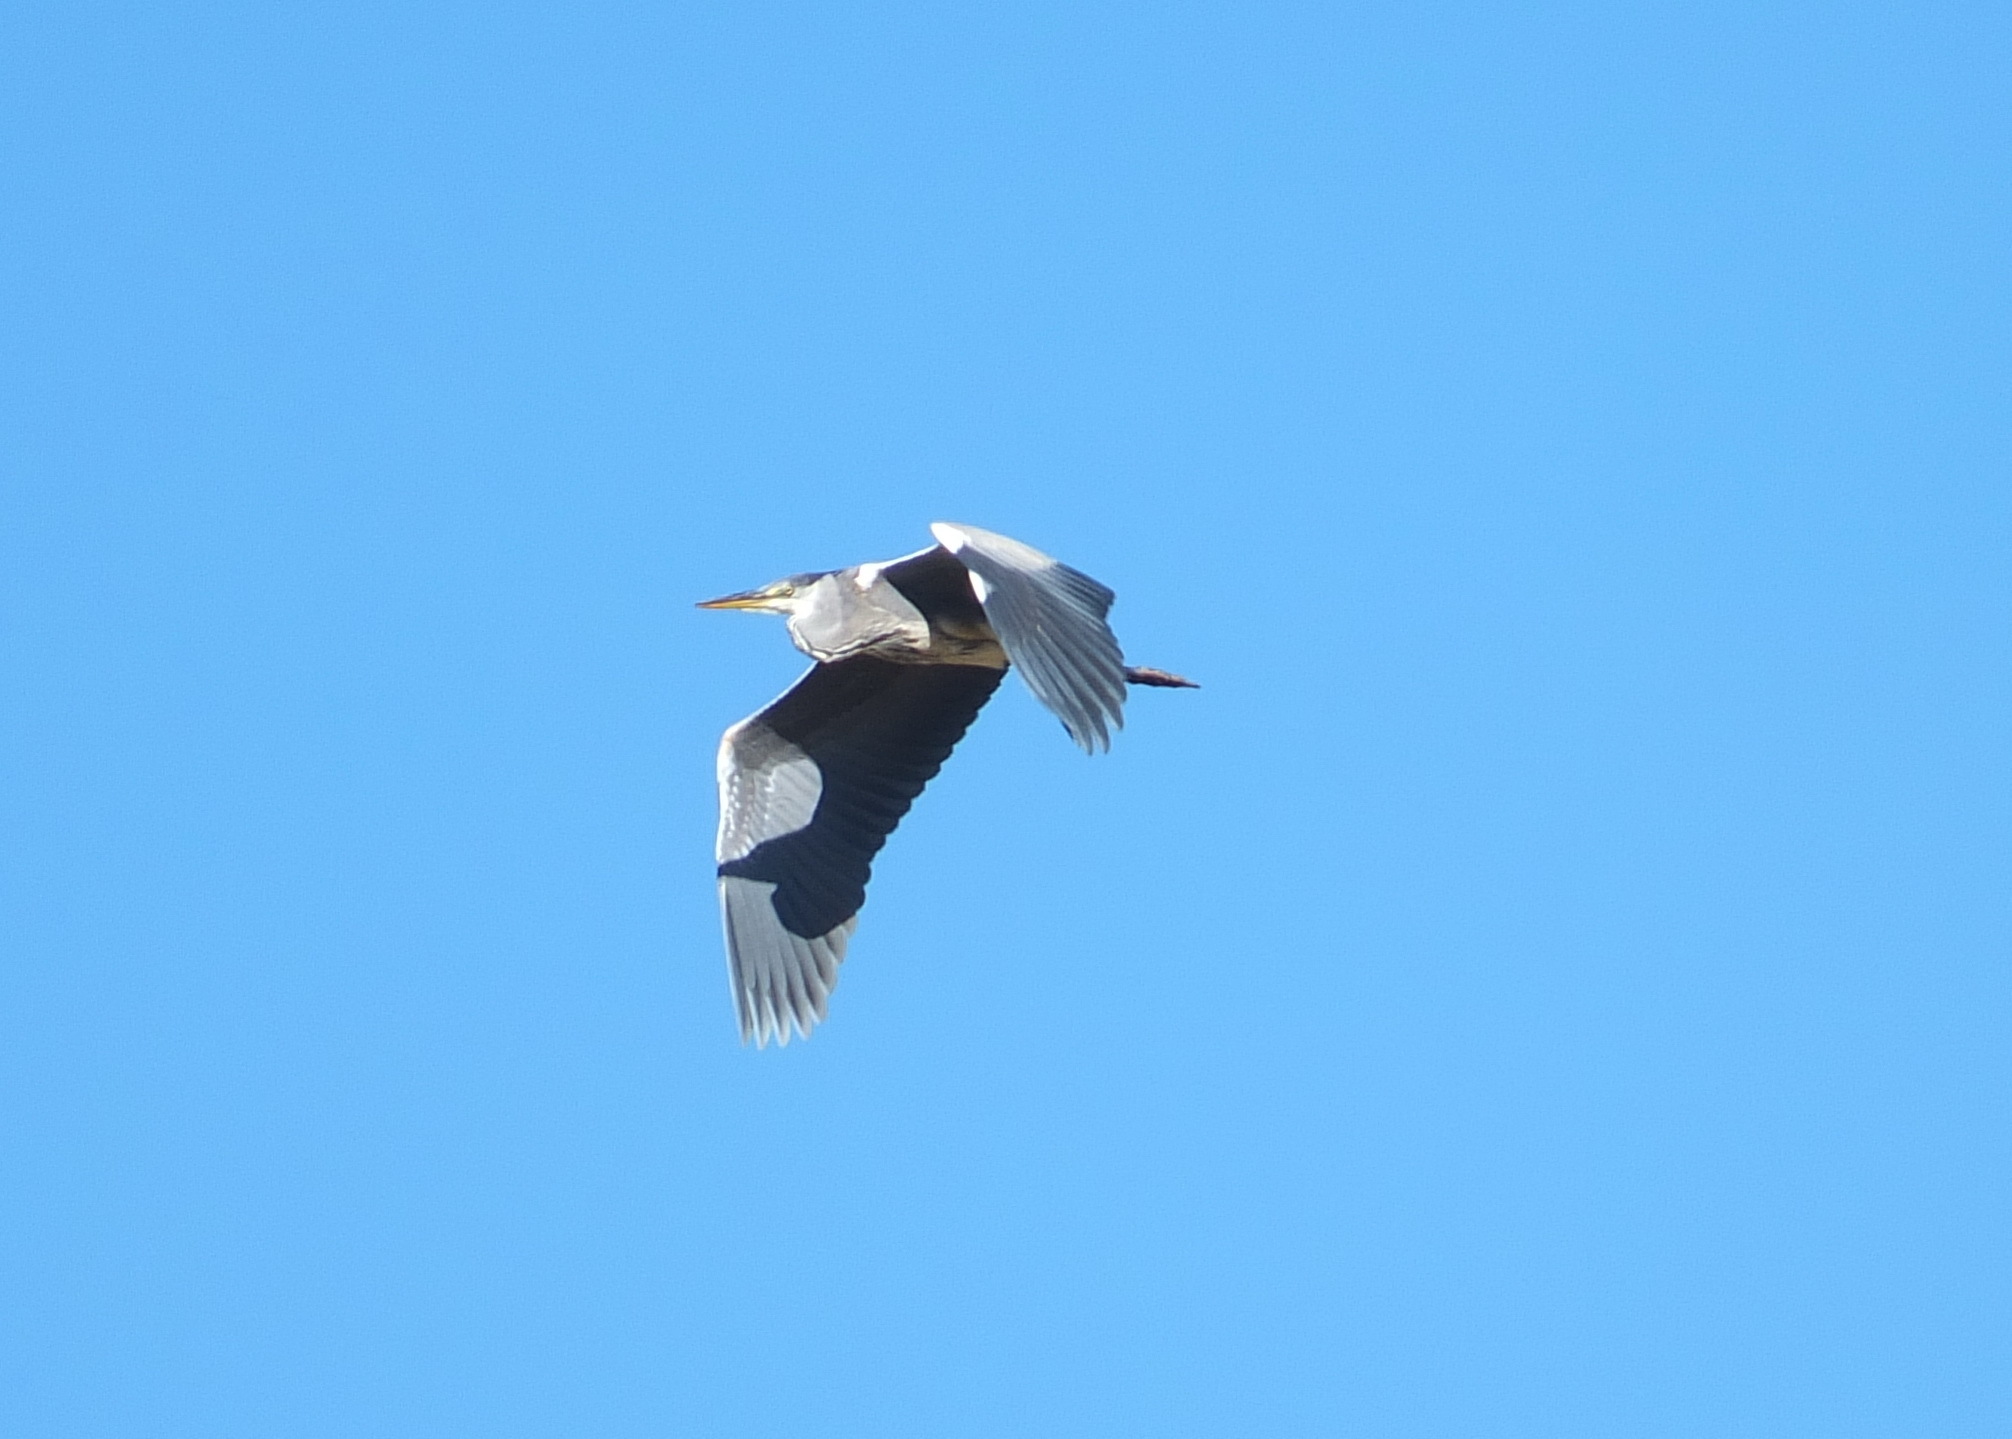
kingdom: Animalia
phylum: Chordata
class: Aves
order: Pelecaniformes
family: Ardeidae
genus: Ardea
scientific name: Ardea cinerea
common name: Grey heron
